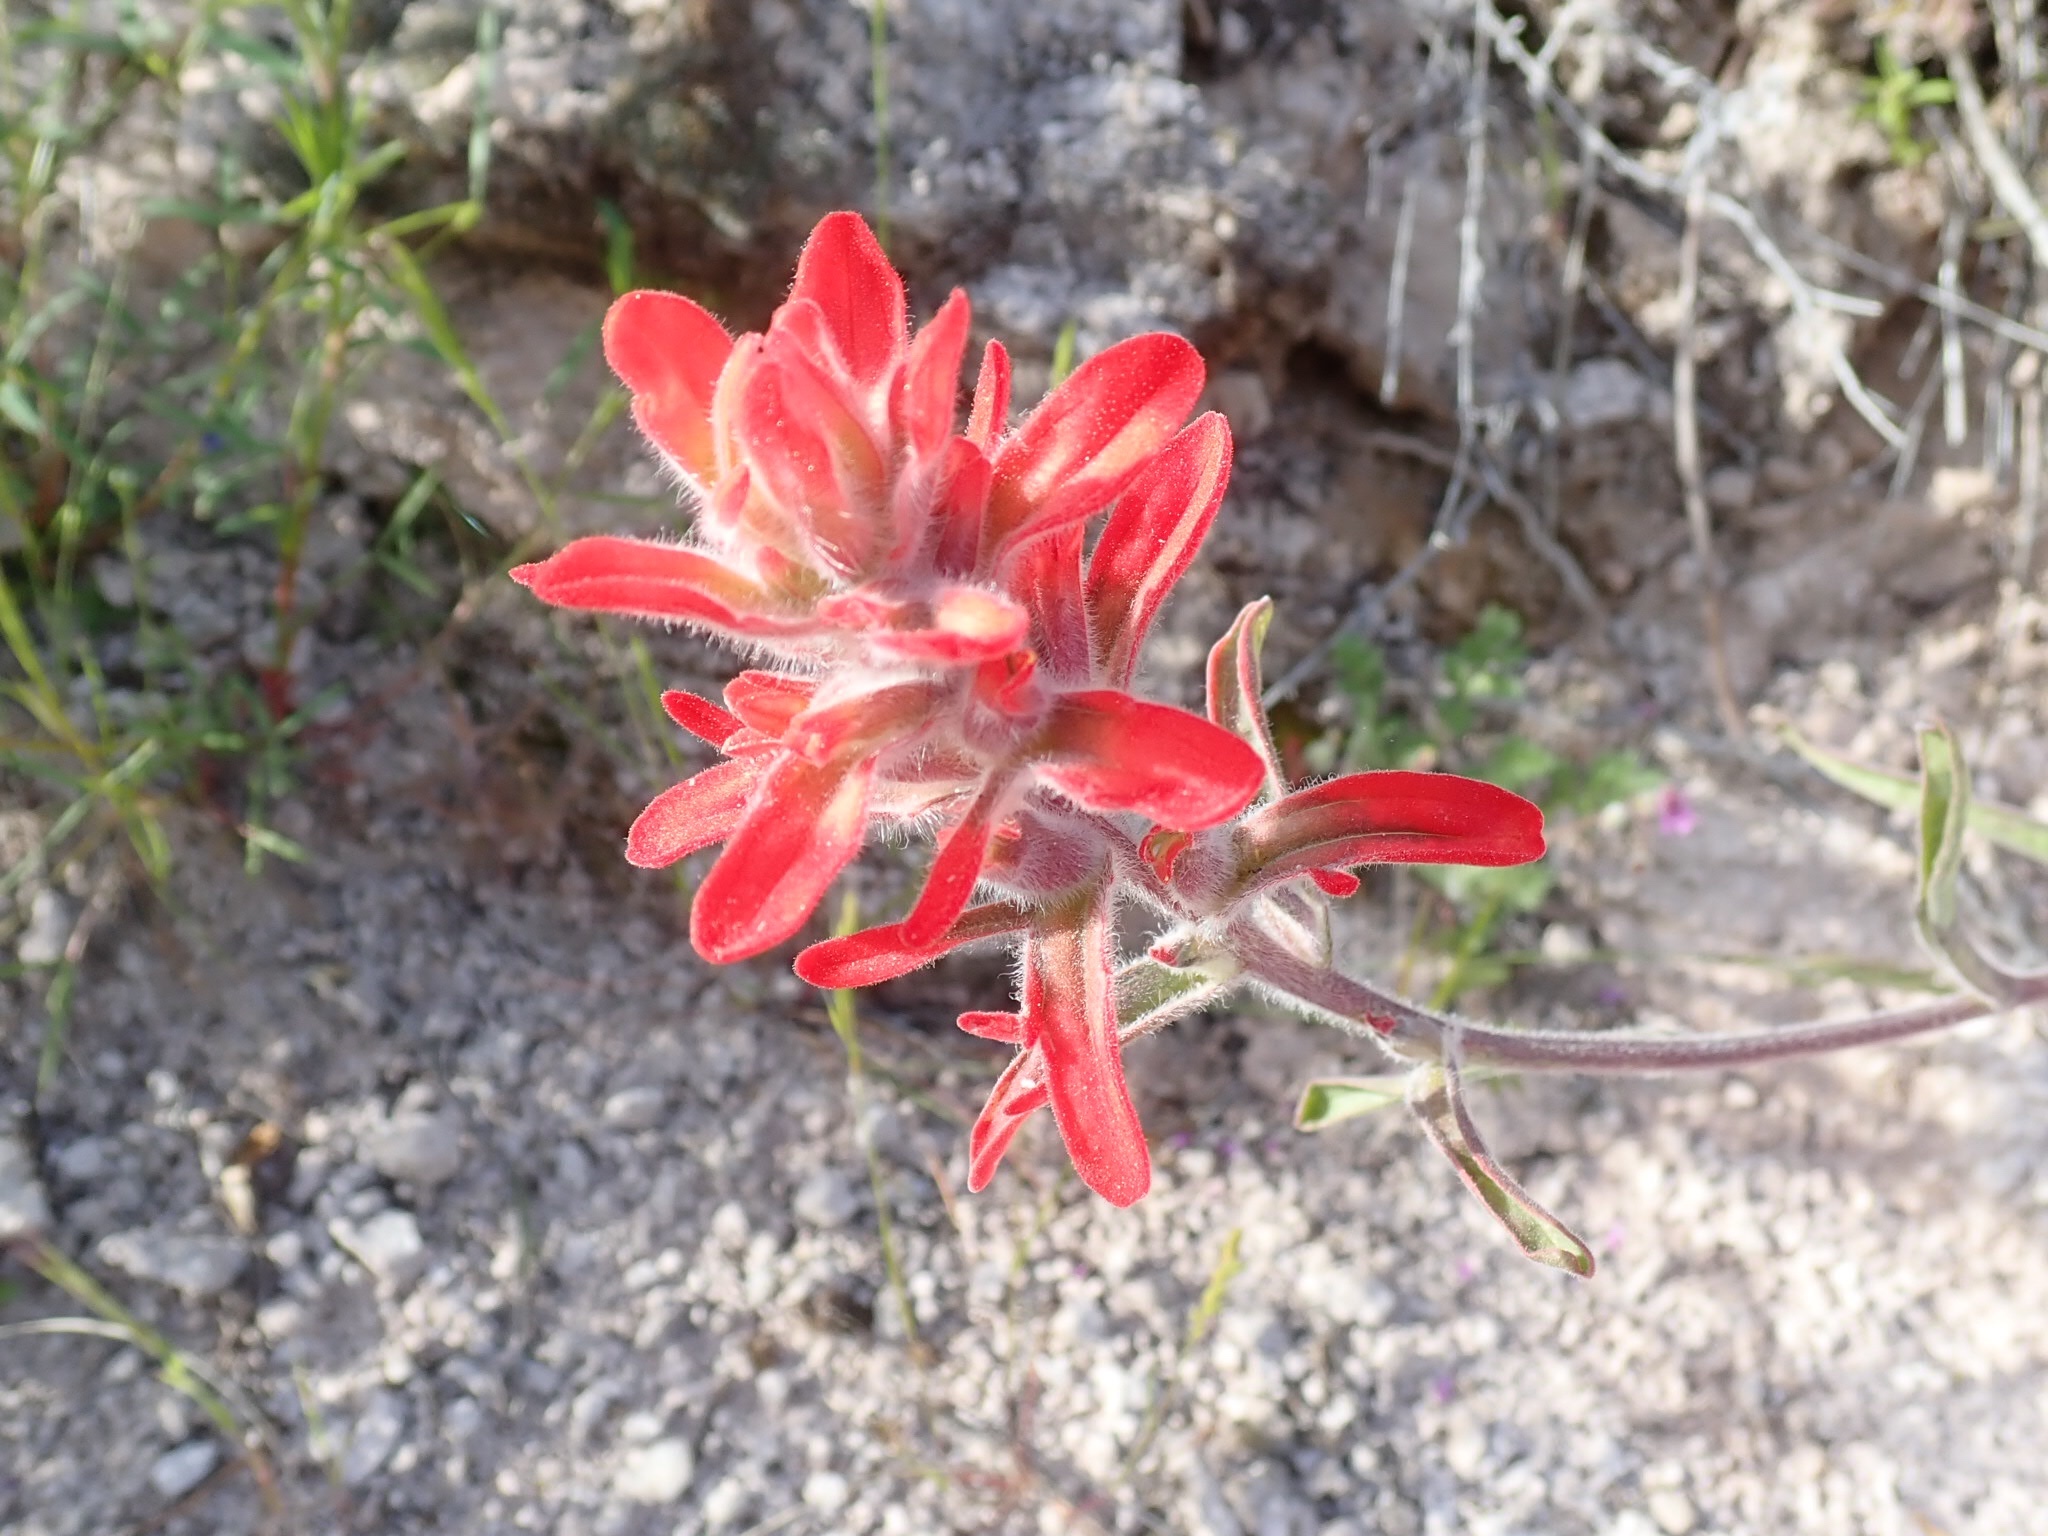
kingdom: Plantae
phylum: Tracheophyta
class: Magnoliopsida
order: Lamiales
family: Orobanchaceae
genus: Castilleja
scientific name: Castilleja chromosa
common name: Desert paintbrush
